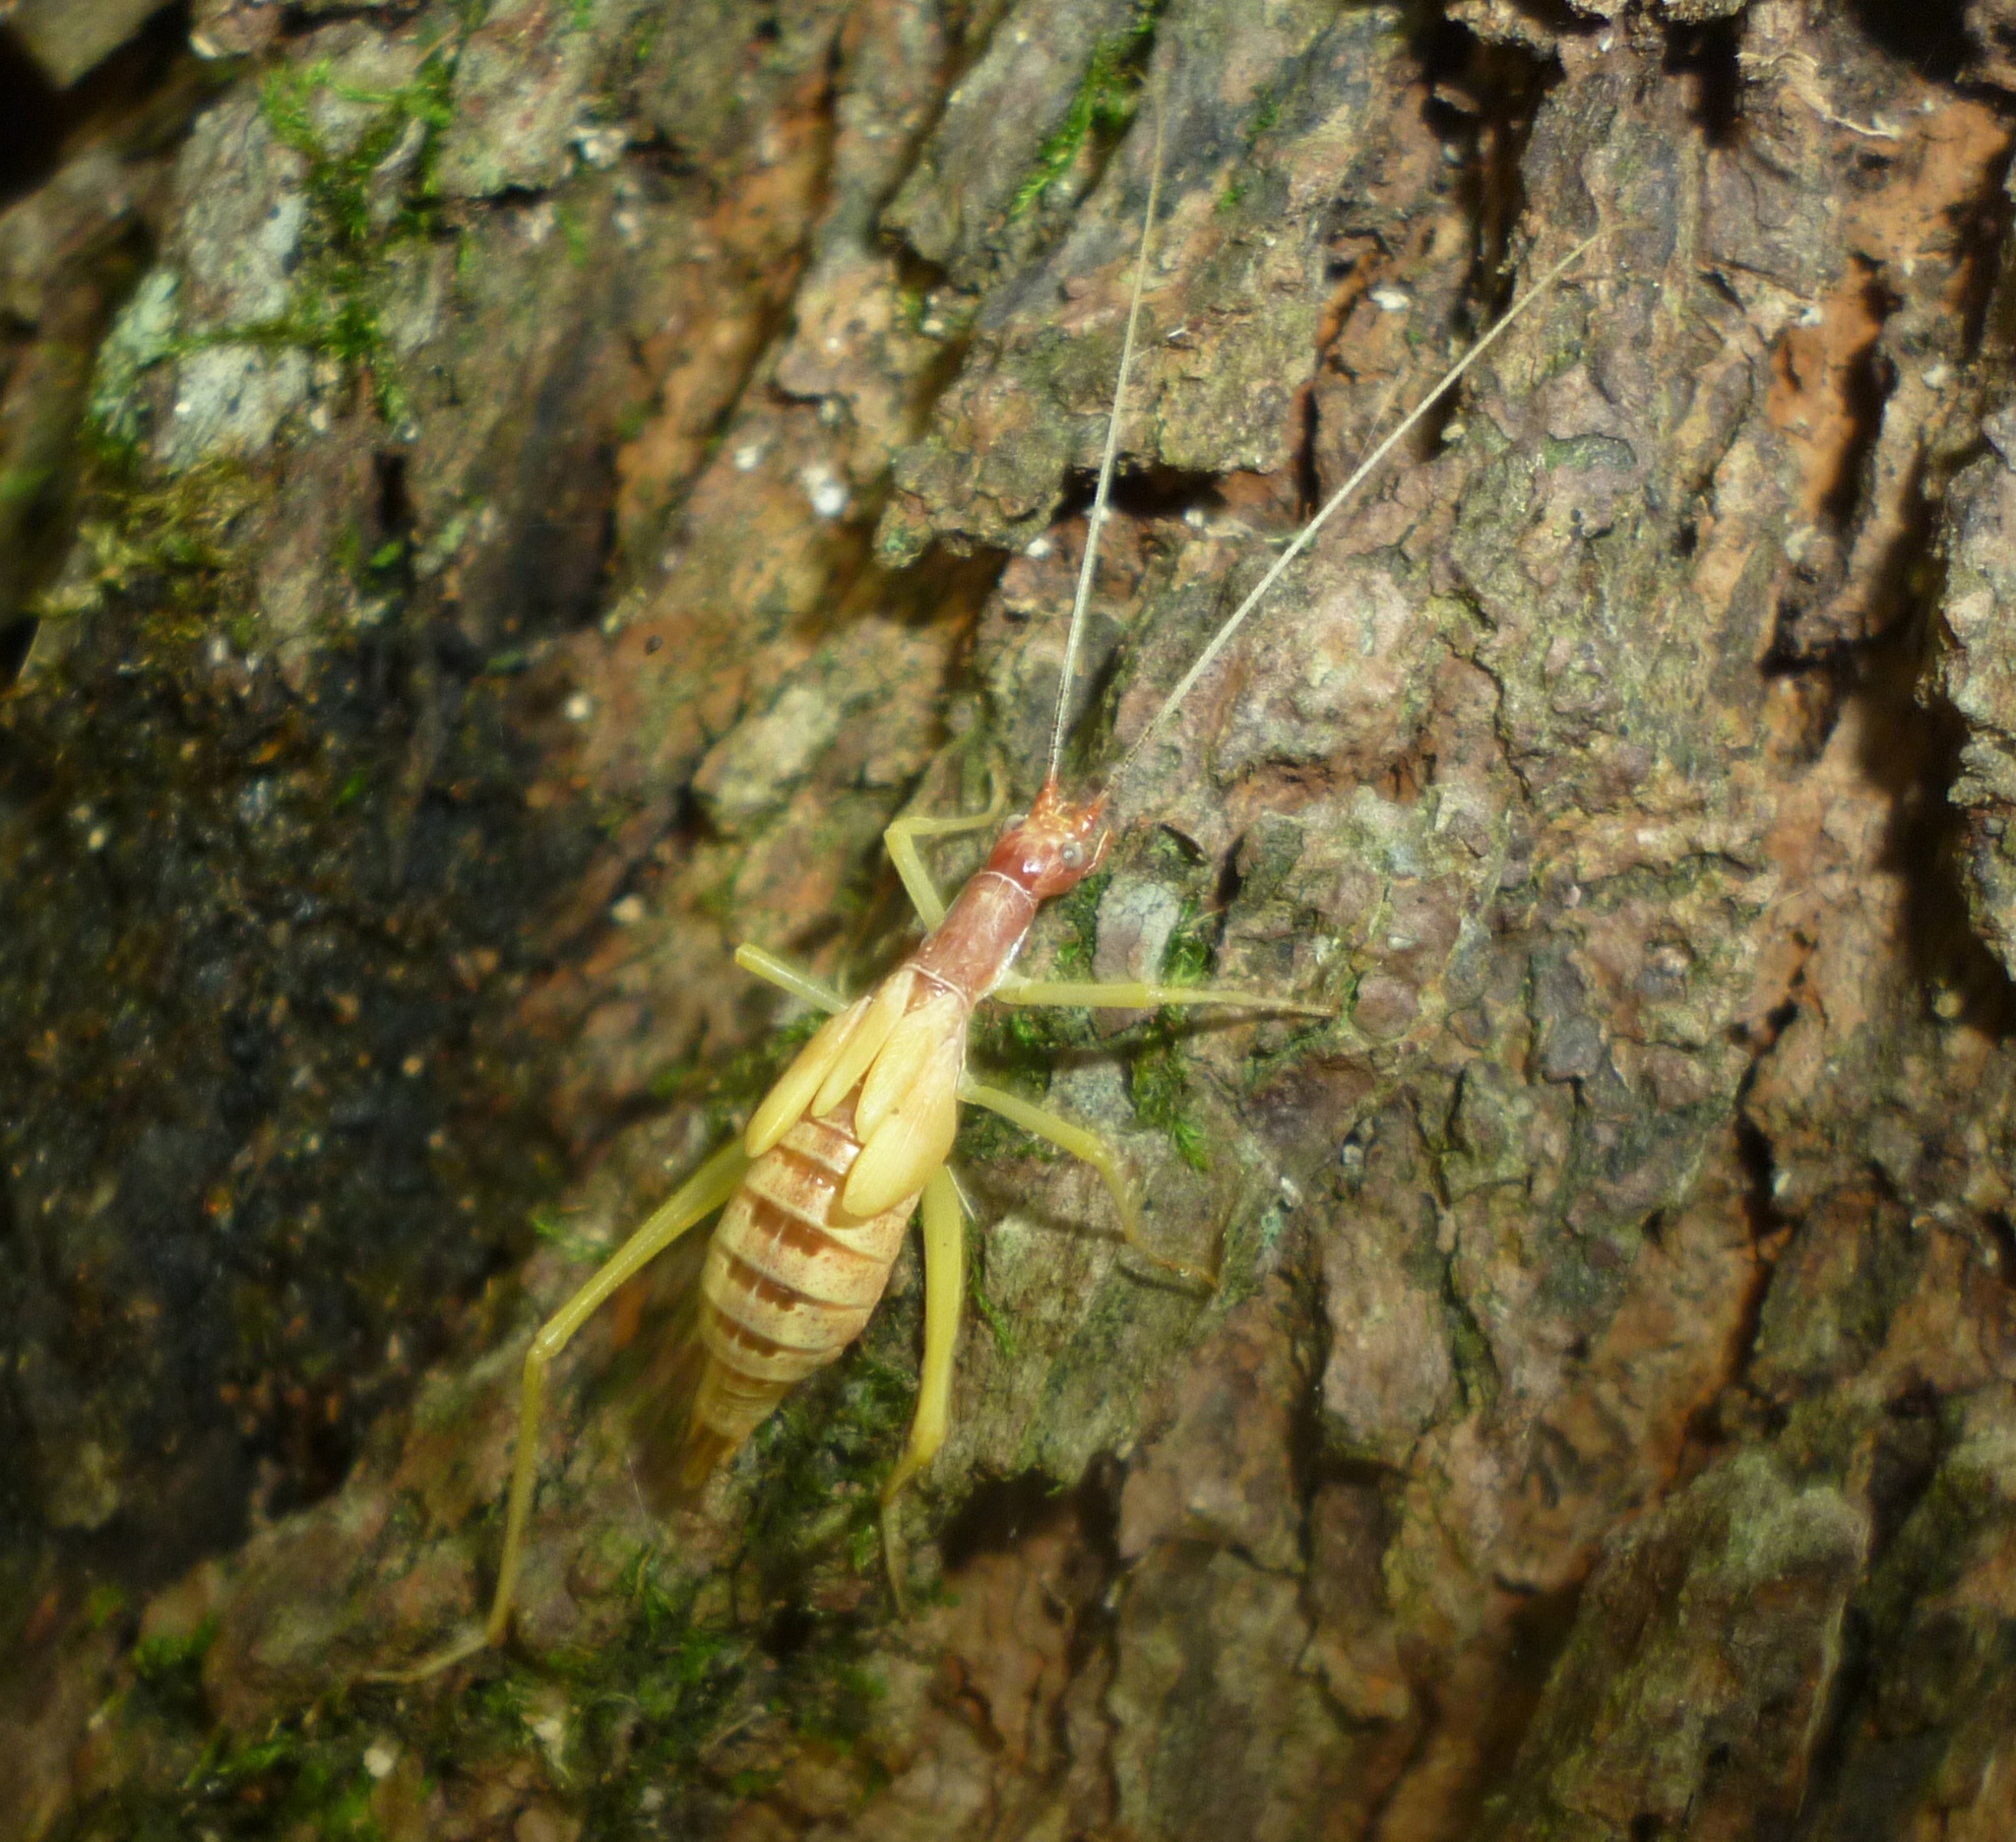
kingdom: Animalia
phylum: Arthropoda
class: Insecta
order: Orthoptera
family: Gryllidae
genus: Neoxabea
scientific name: Neoxabea bipunctata
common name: Two-spotted tree cricket
